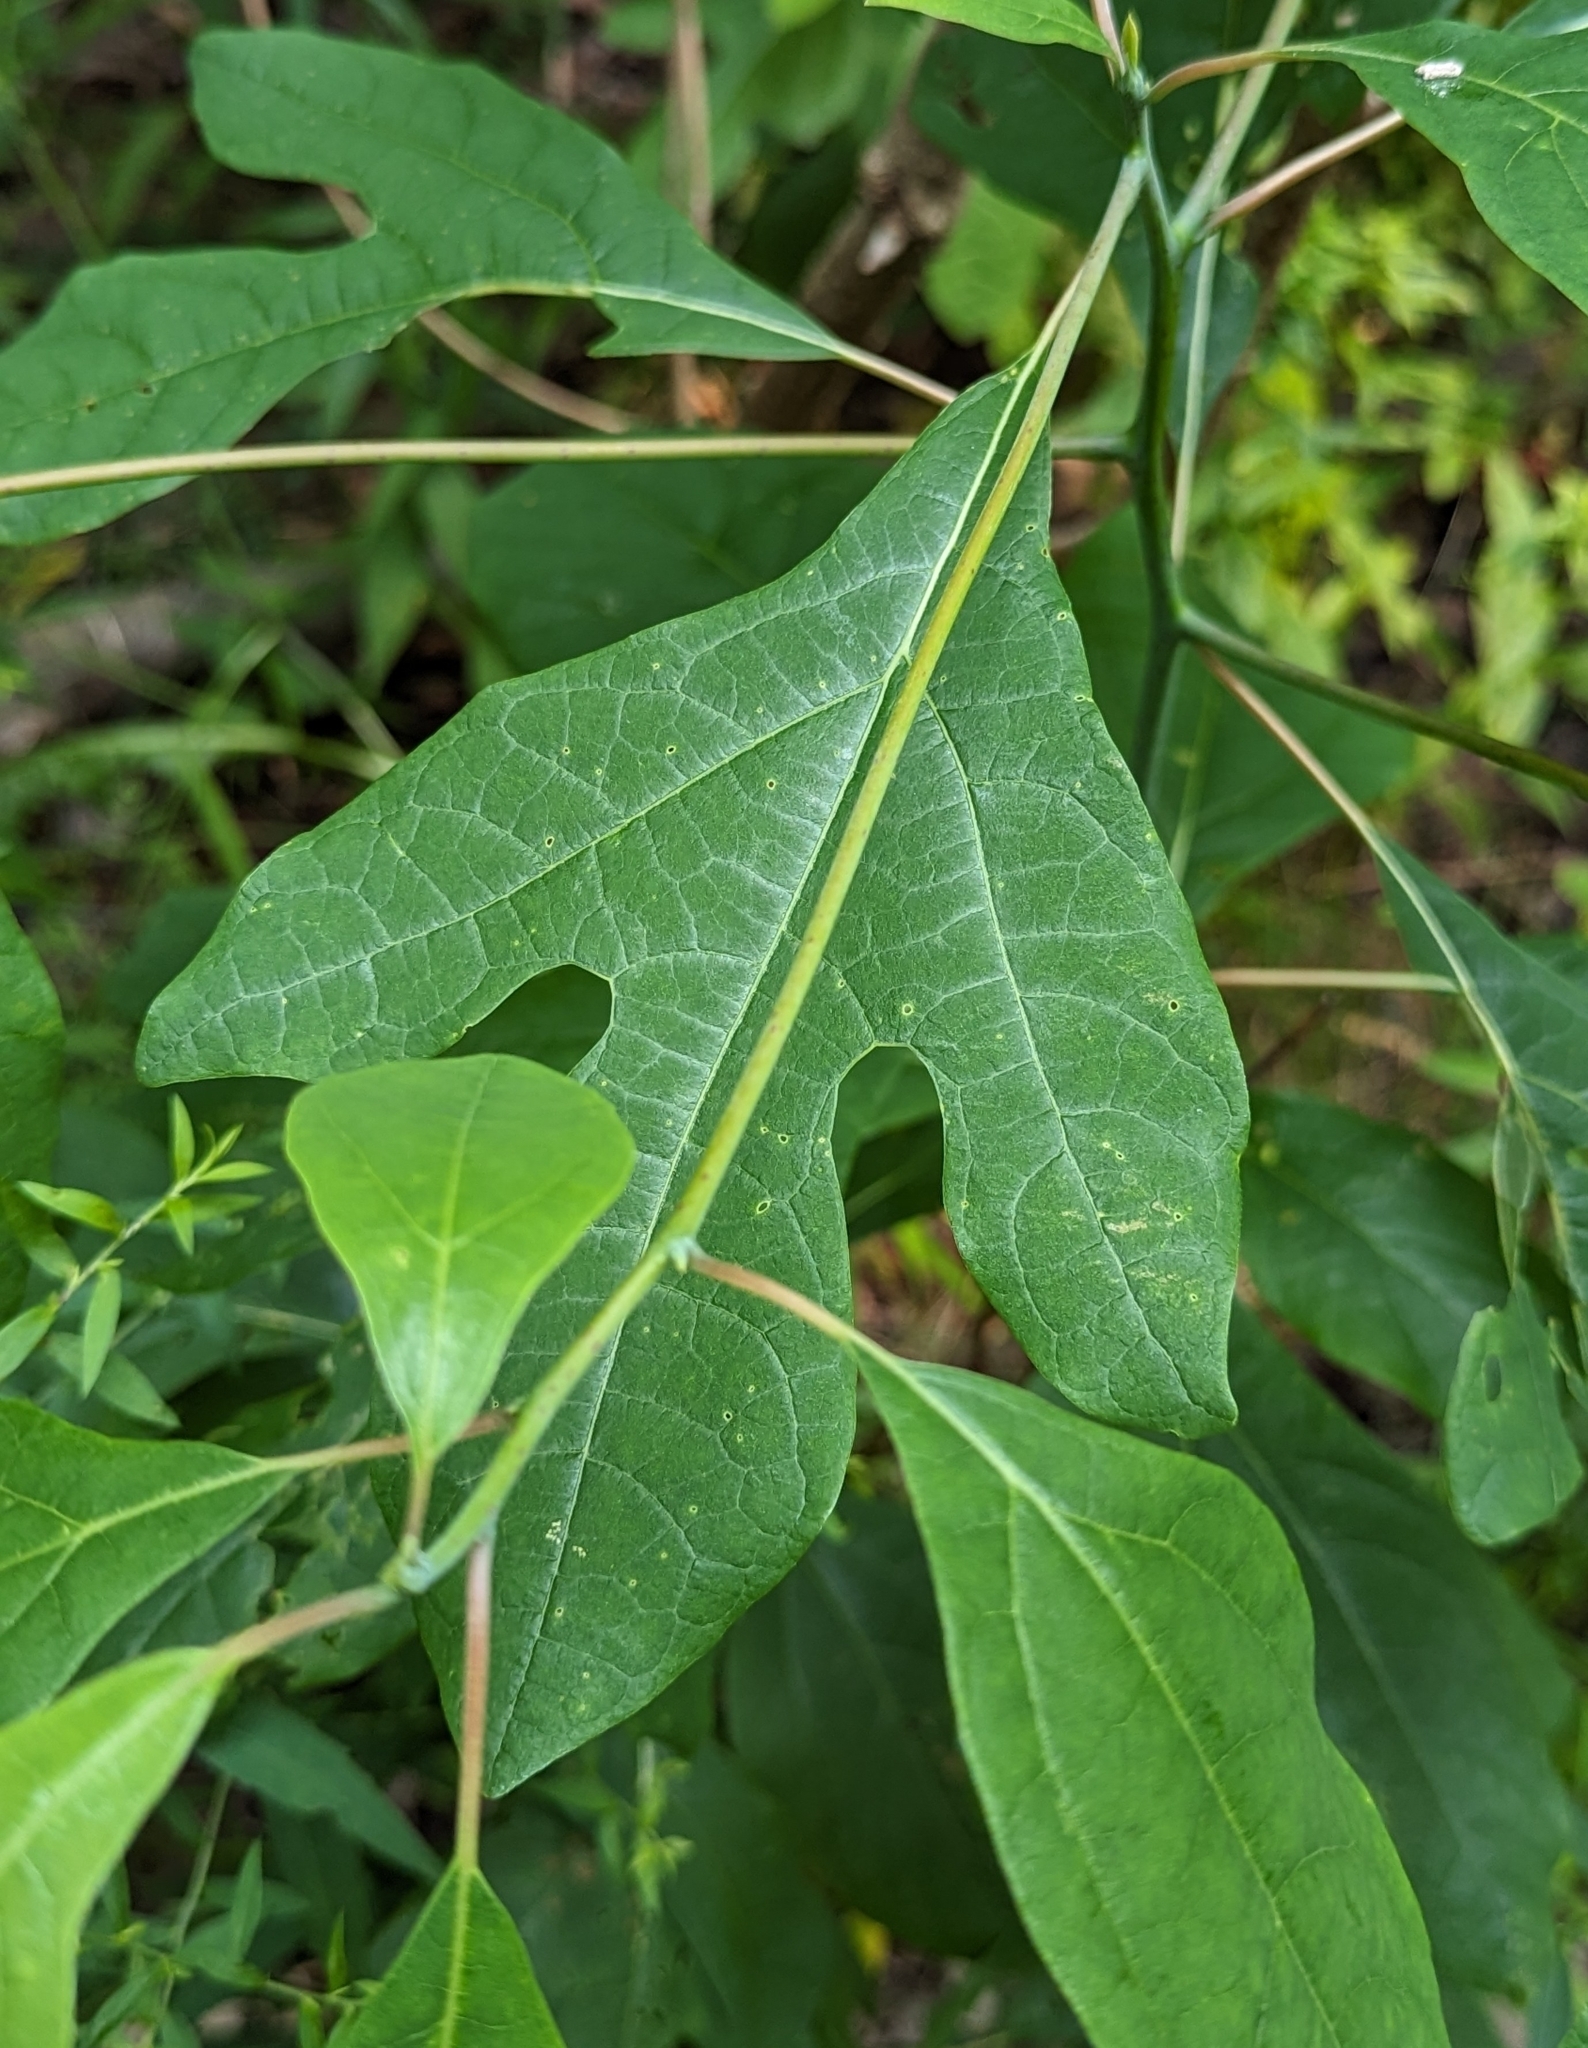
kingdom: Plantae
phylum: Tracheophyta
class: Magnoliopsida
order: Laurales
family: Lauraceae
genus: Sassafras
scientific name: Sassafras albidum
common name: Sassafras
